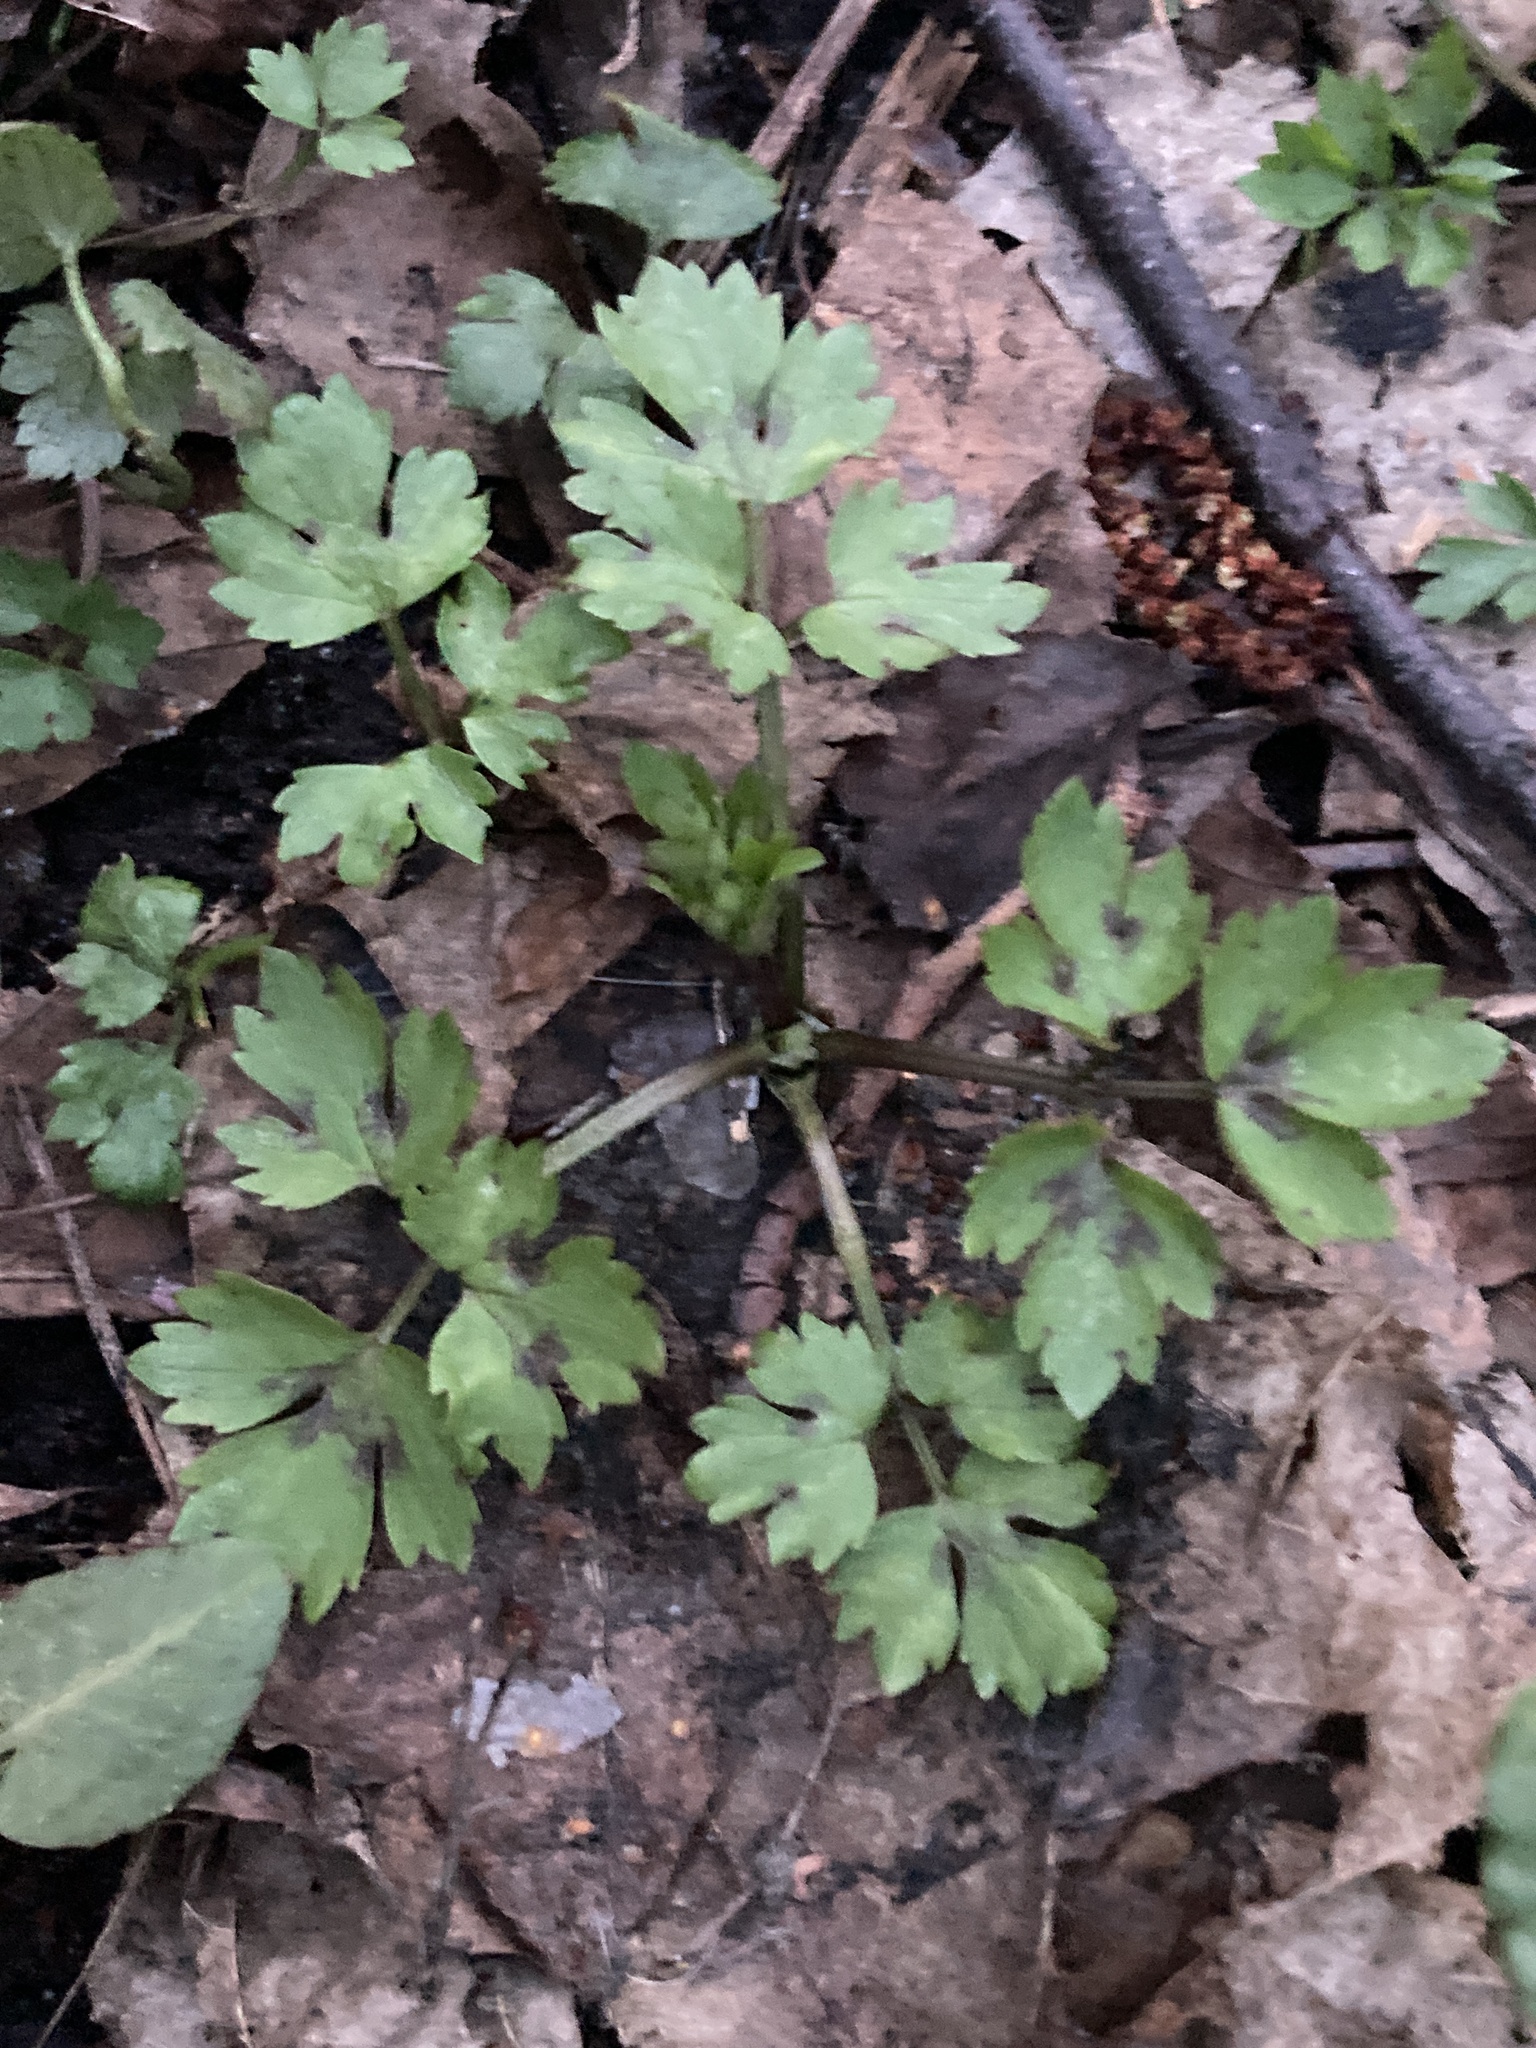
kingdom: Plantae
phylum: Tracheophyta
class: Magnoliopsida
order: Ranunculales
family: Ranunculaceae
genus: Ranunculus
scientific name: Ranunculus repens
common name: Creeping buttercup
